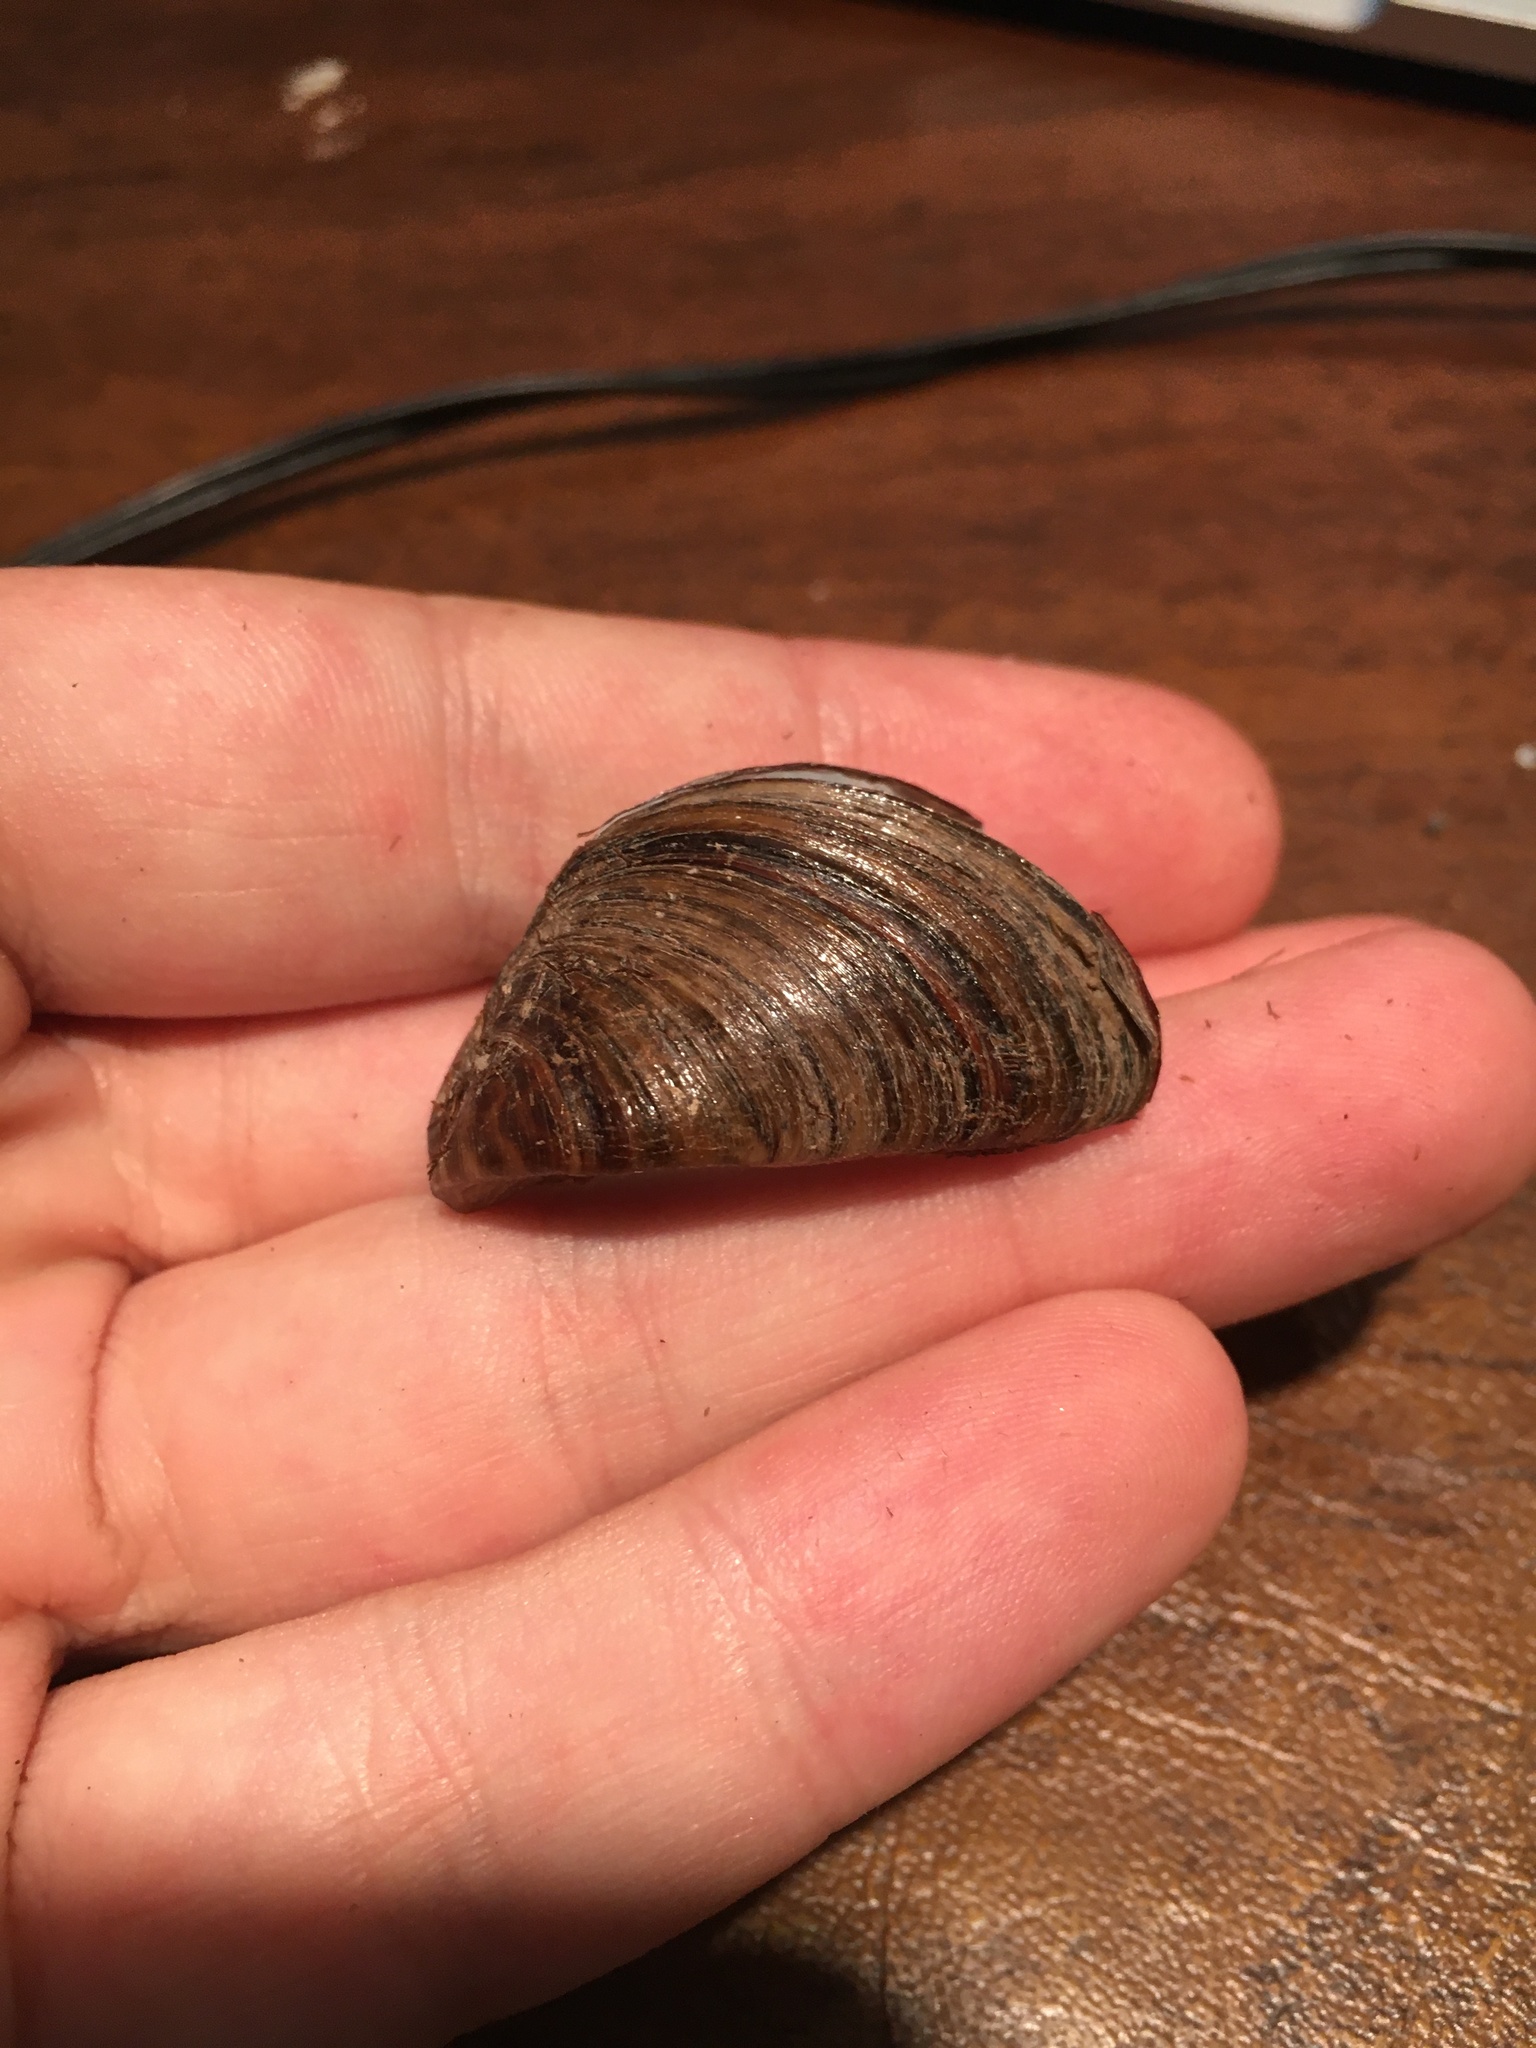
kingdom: Animalia
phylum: Mollusca
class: Bivalvia
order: Myida
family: Dreissenidae
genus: Dreissena
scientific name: Dreissena polymorpha
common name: Zebra mussel
